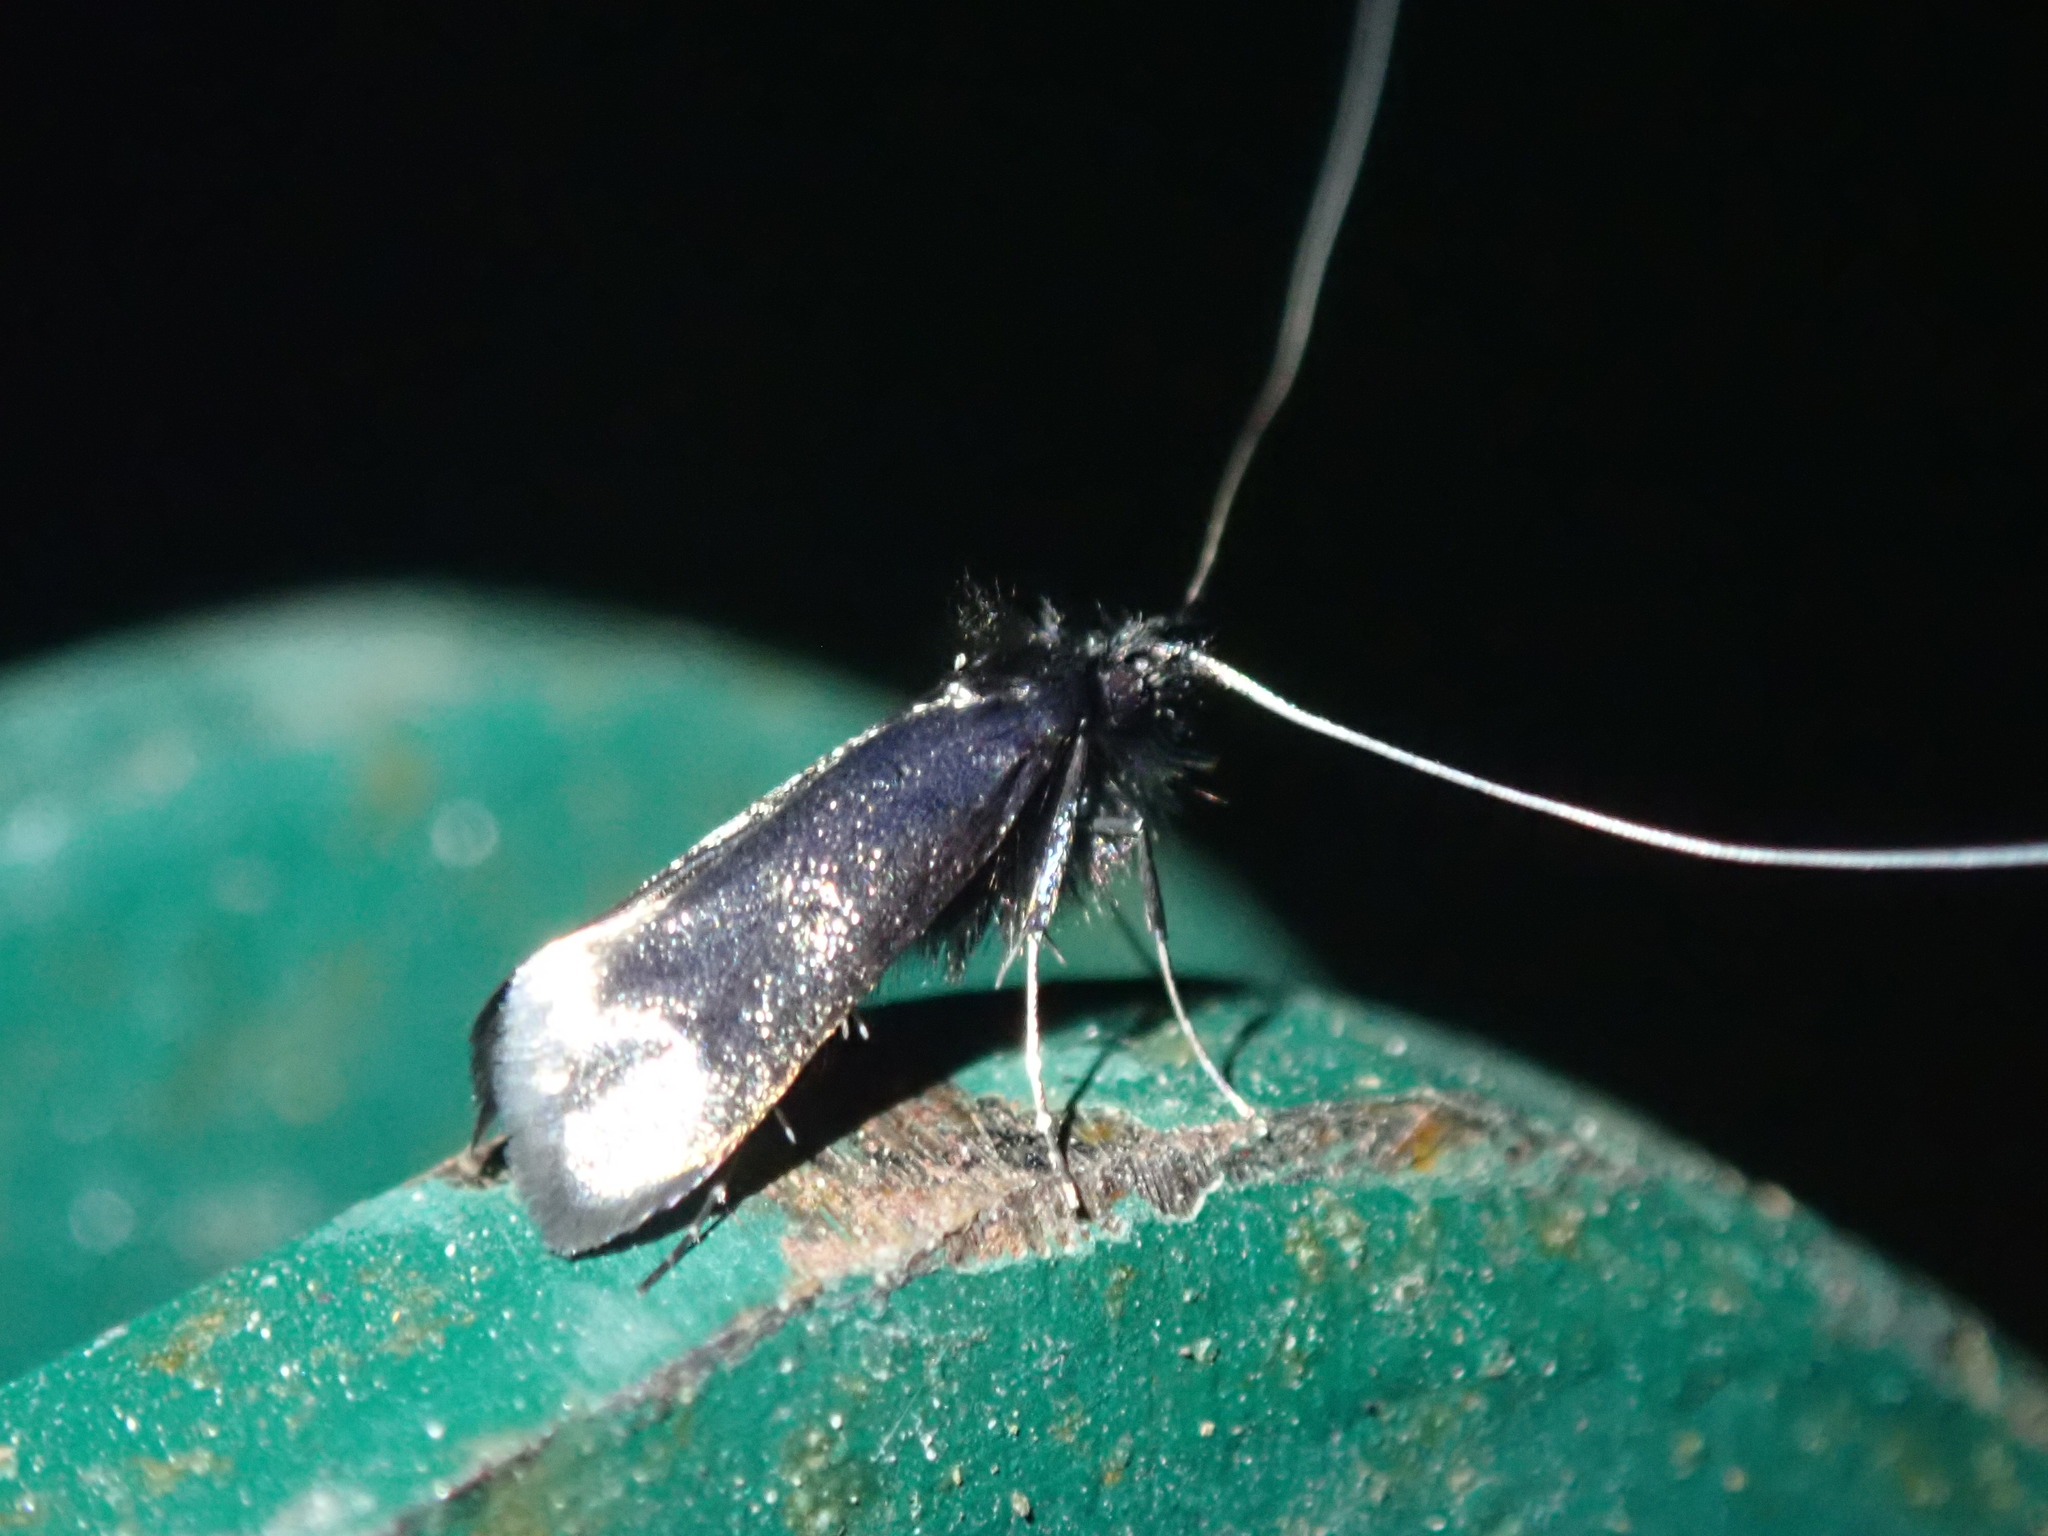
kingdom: Animalia
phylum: Arthropoda
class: Insecta
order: Lepidoptera
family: Adelidae
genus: Adela
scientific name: Adela viridella
